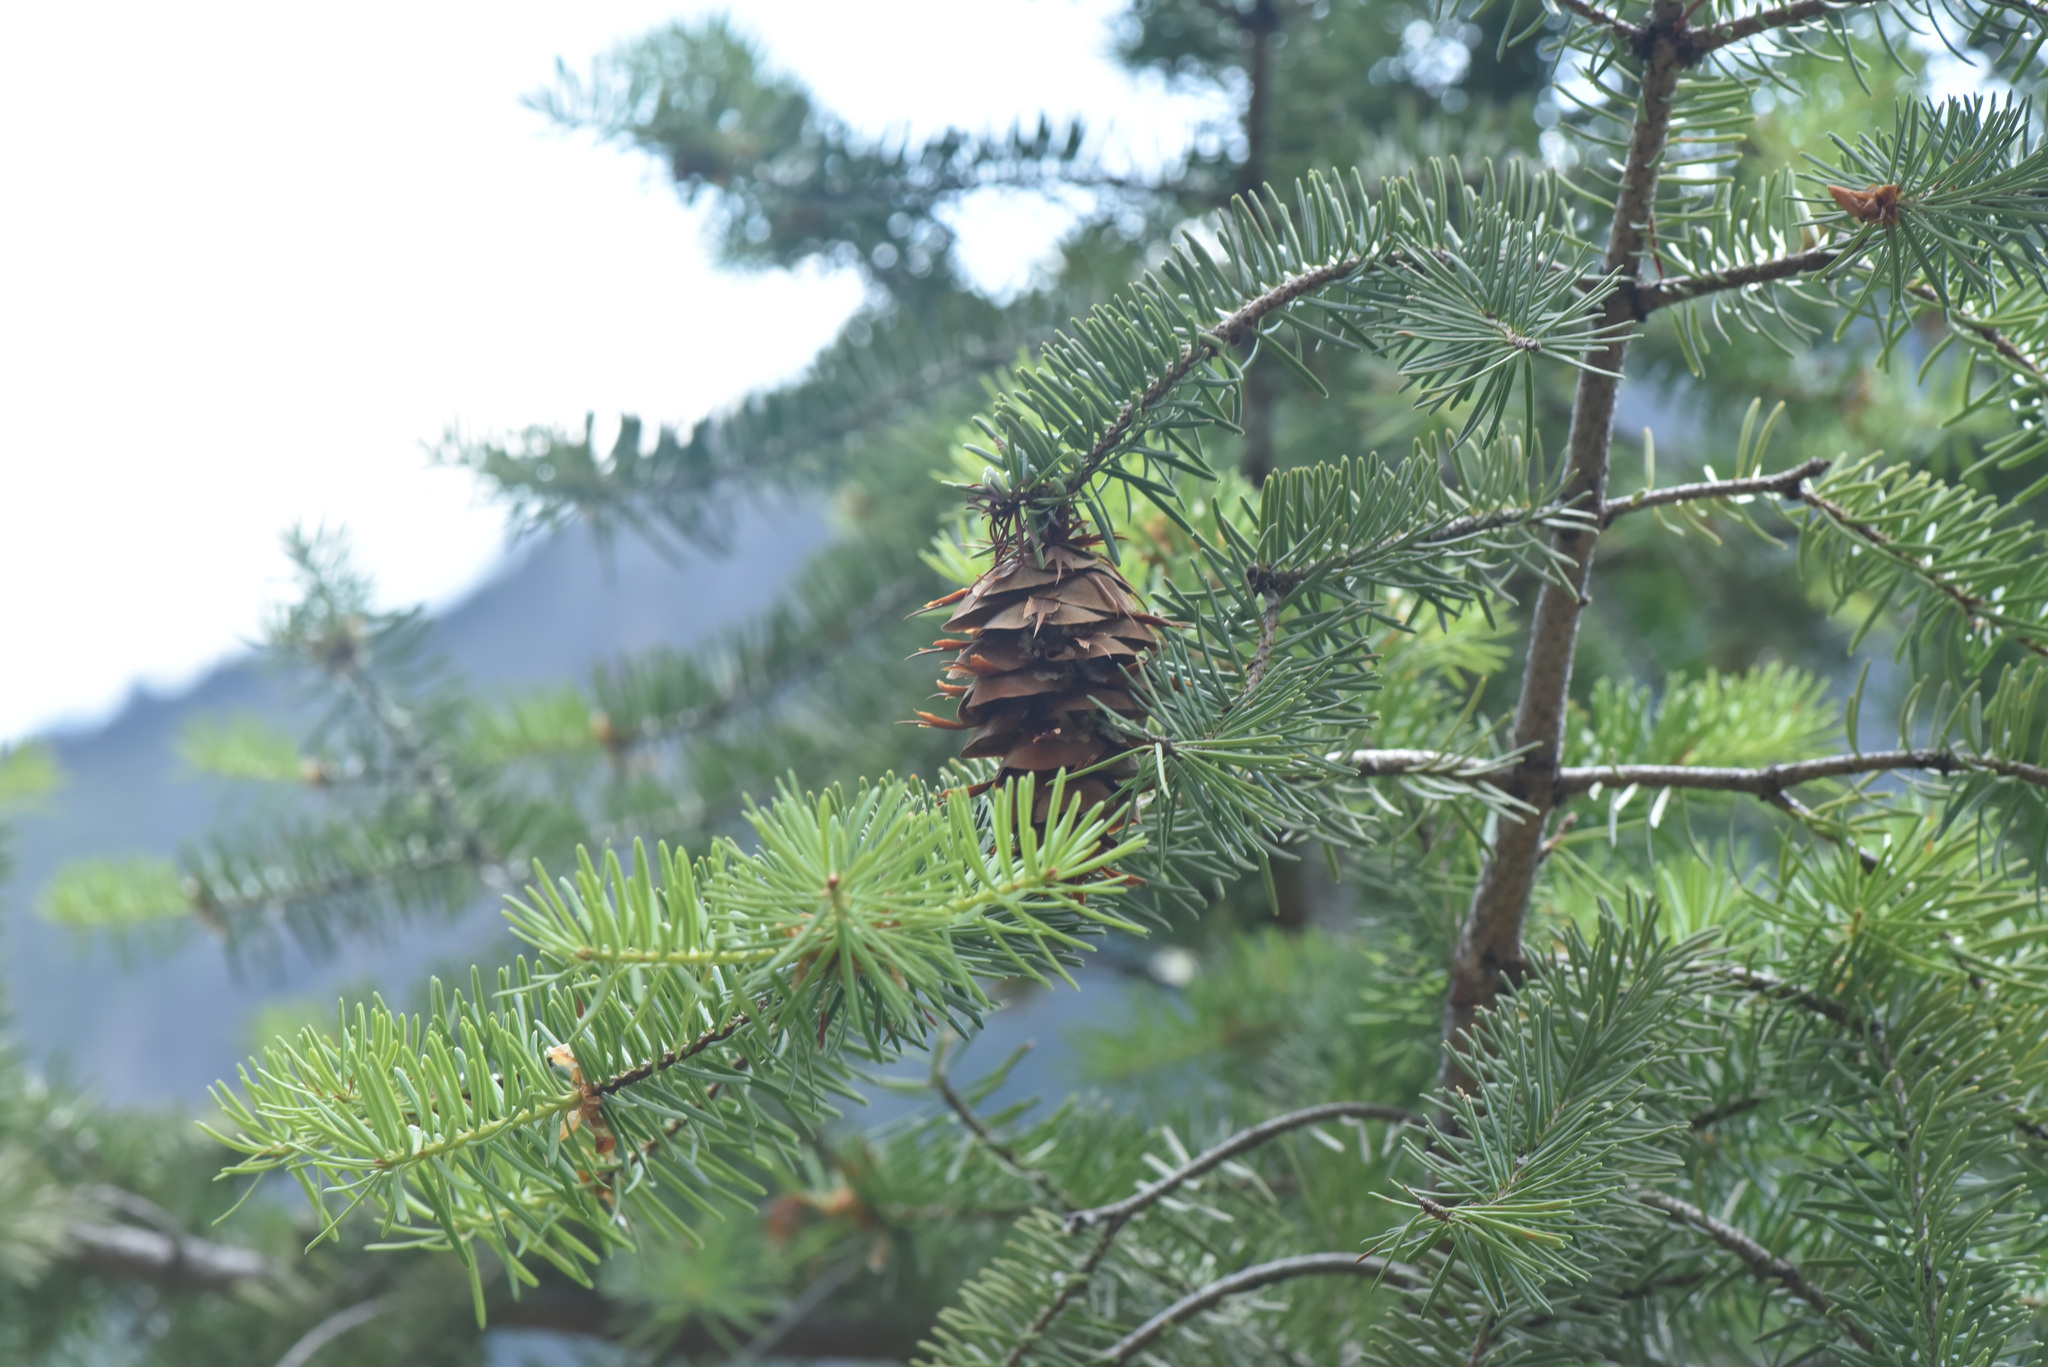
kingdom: Plantae
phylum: Tracheophyta
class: Pinopsida
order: Pinales
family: Pinaceae
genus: Pseudotsuga
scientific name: Pseudotsuga menziesii
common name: Douglas fir
